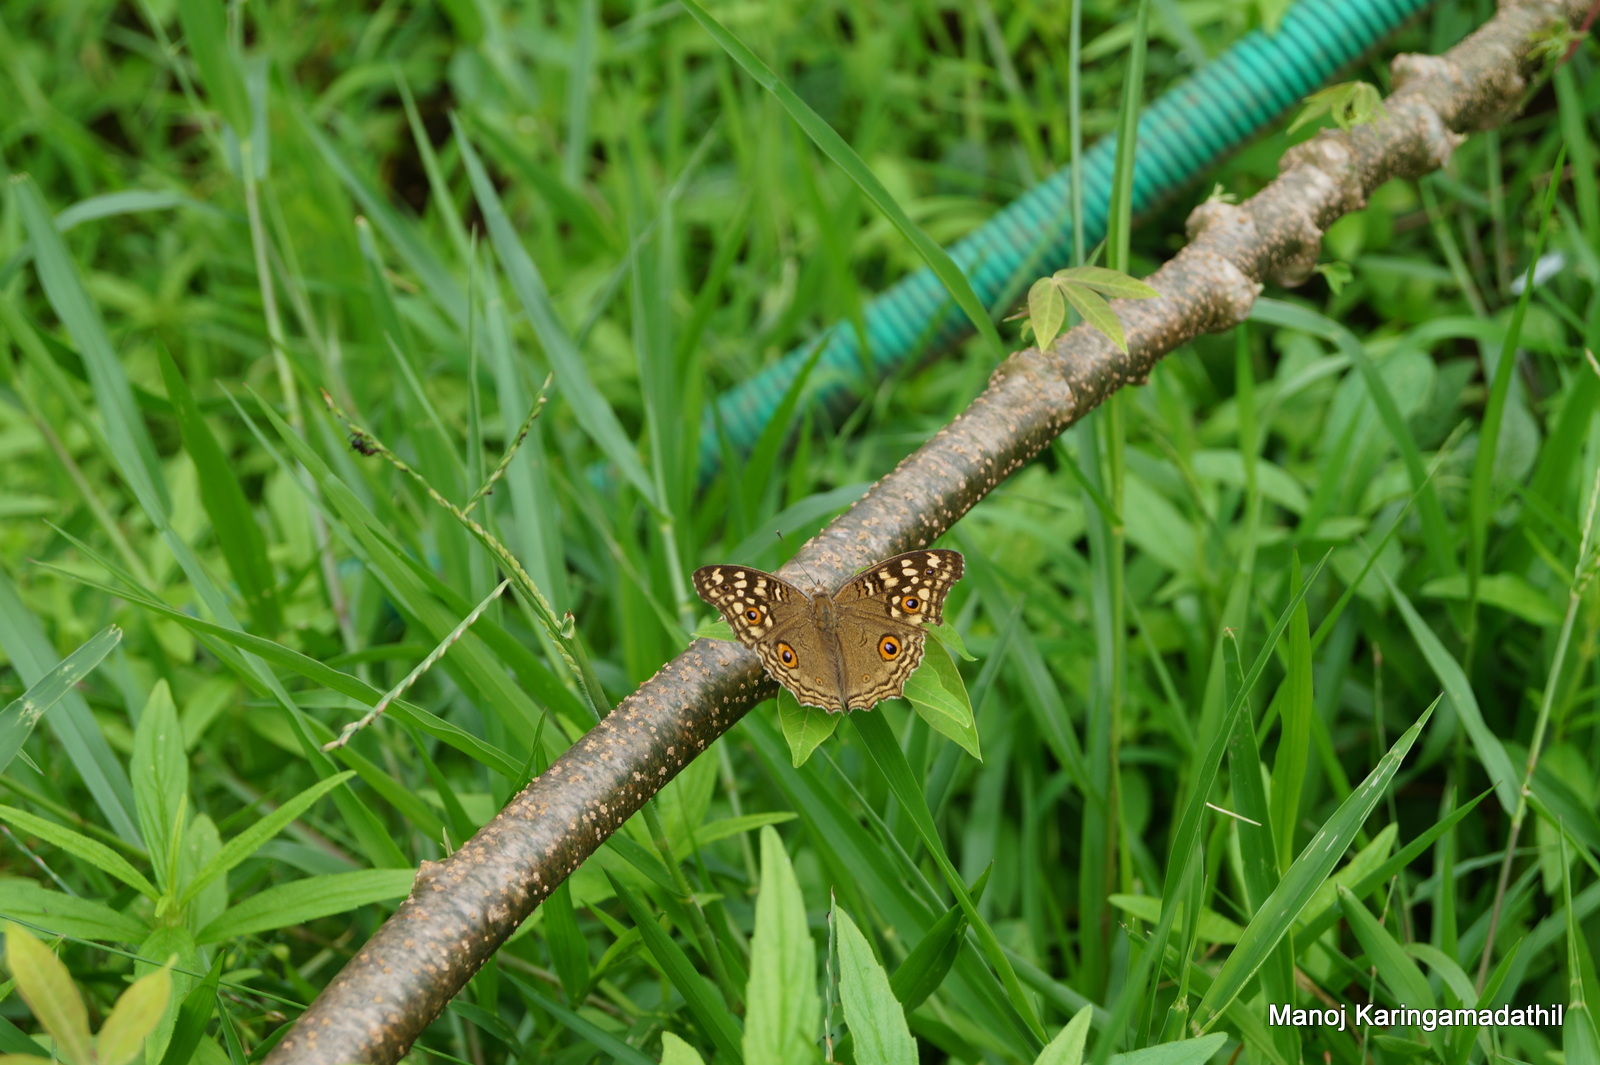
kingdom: Animalia
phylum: Arthropoda
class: Insecta
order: Lepidoptera
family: Nymphalidae
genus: Junonia
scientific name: Junonia lemonias
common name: Lemon pansy
